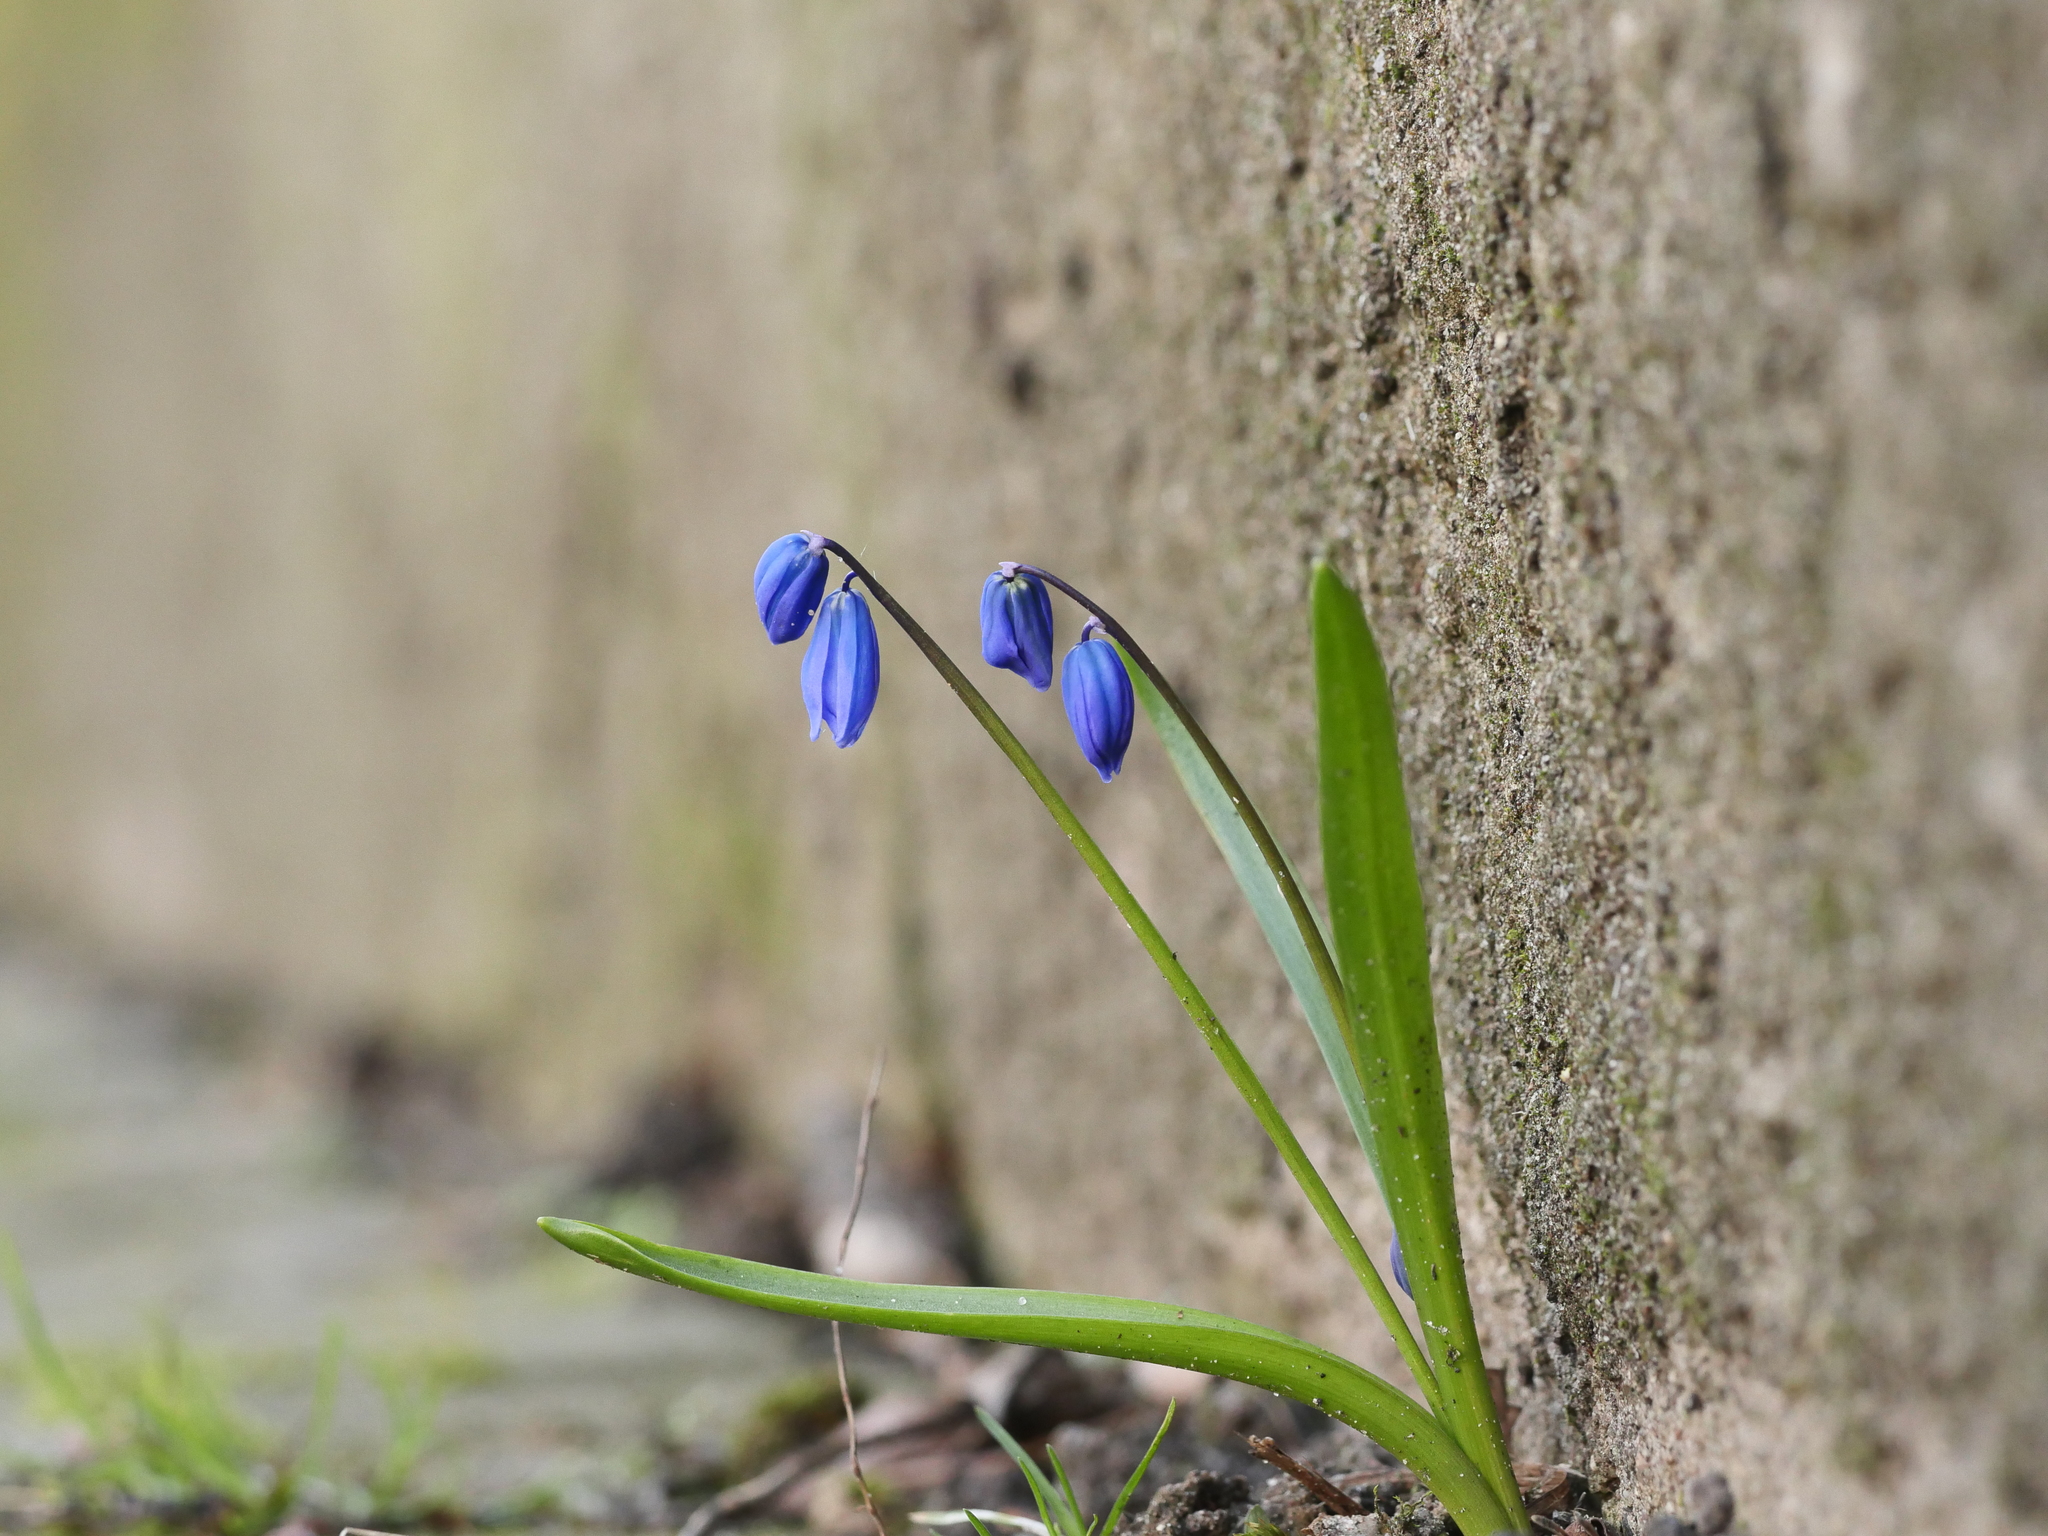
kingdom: Plantae
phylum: Tracheophyta
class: Liliopsida
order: Asparagales
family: Asparagaceae
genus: Scilla
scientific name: Scilla siberica
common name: Siberian squill
